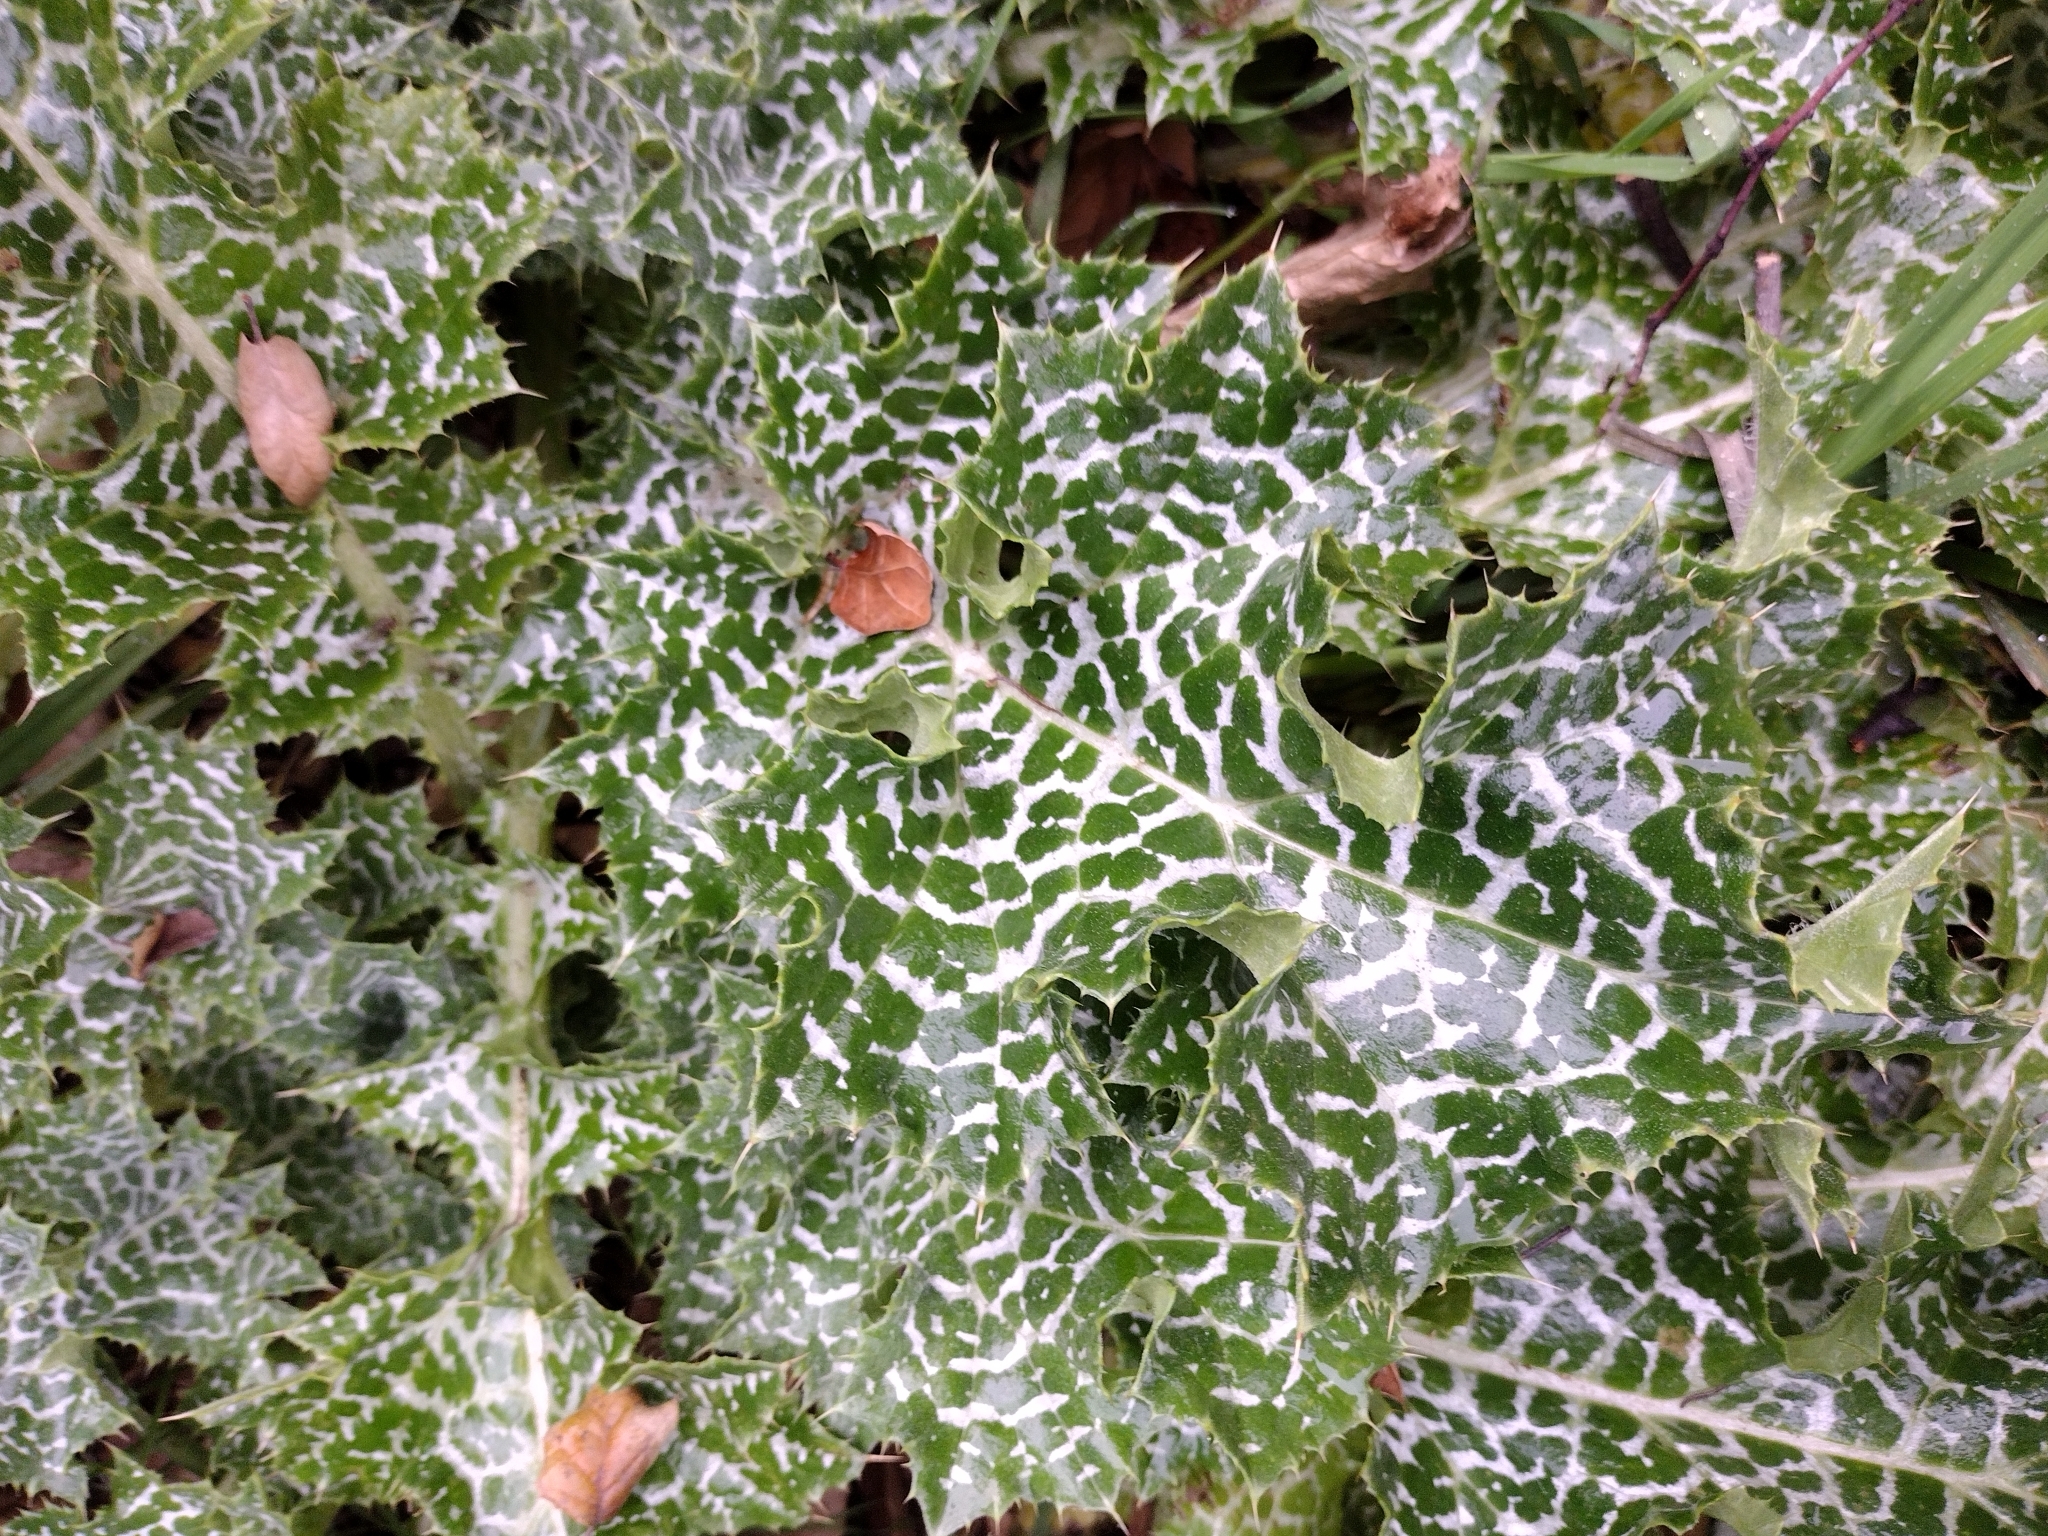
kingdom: Plantae
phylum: Tracheophyta
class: Magnoliopsida
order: Asterales
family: Asteraceae
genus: Silybum
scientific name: Silybum marianum
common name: Milk thistle
